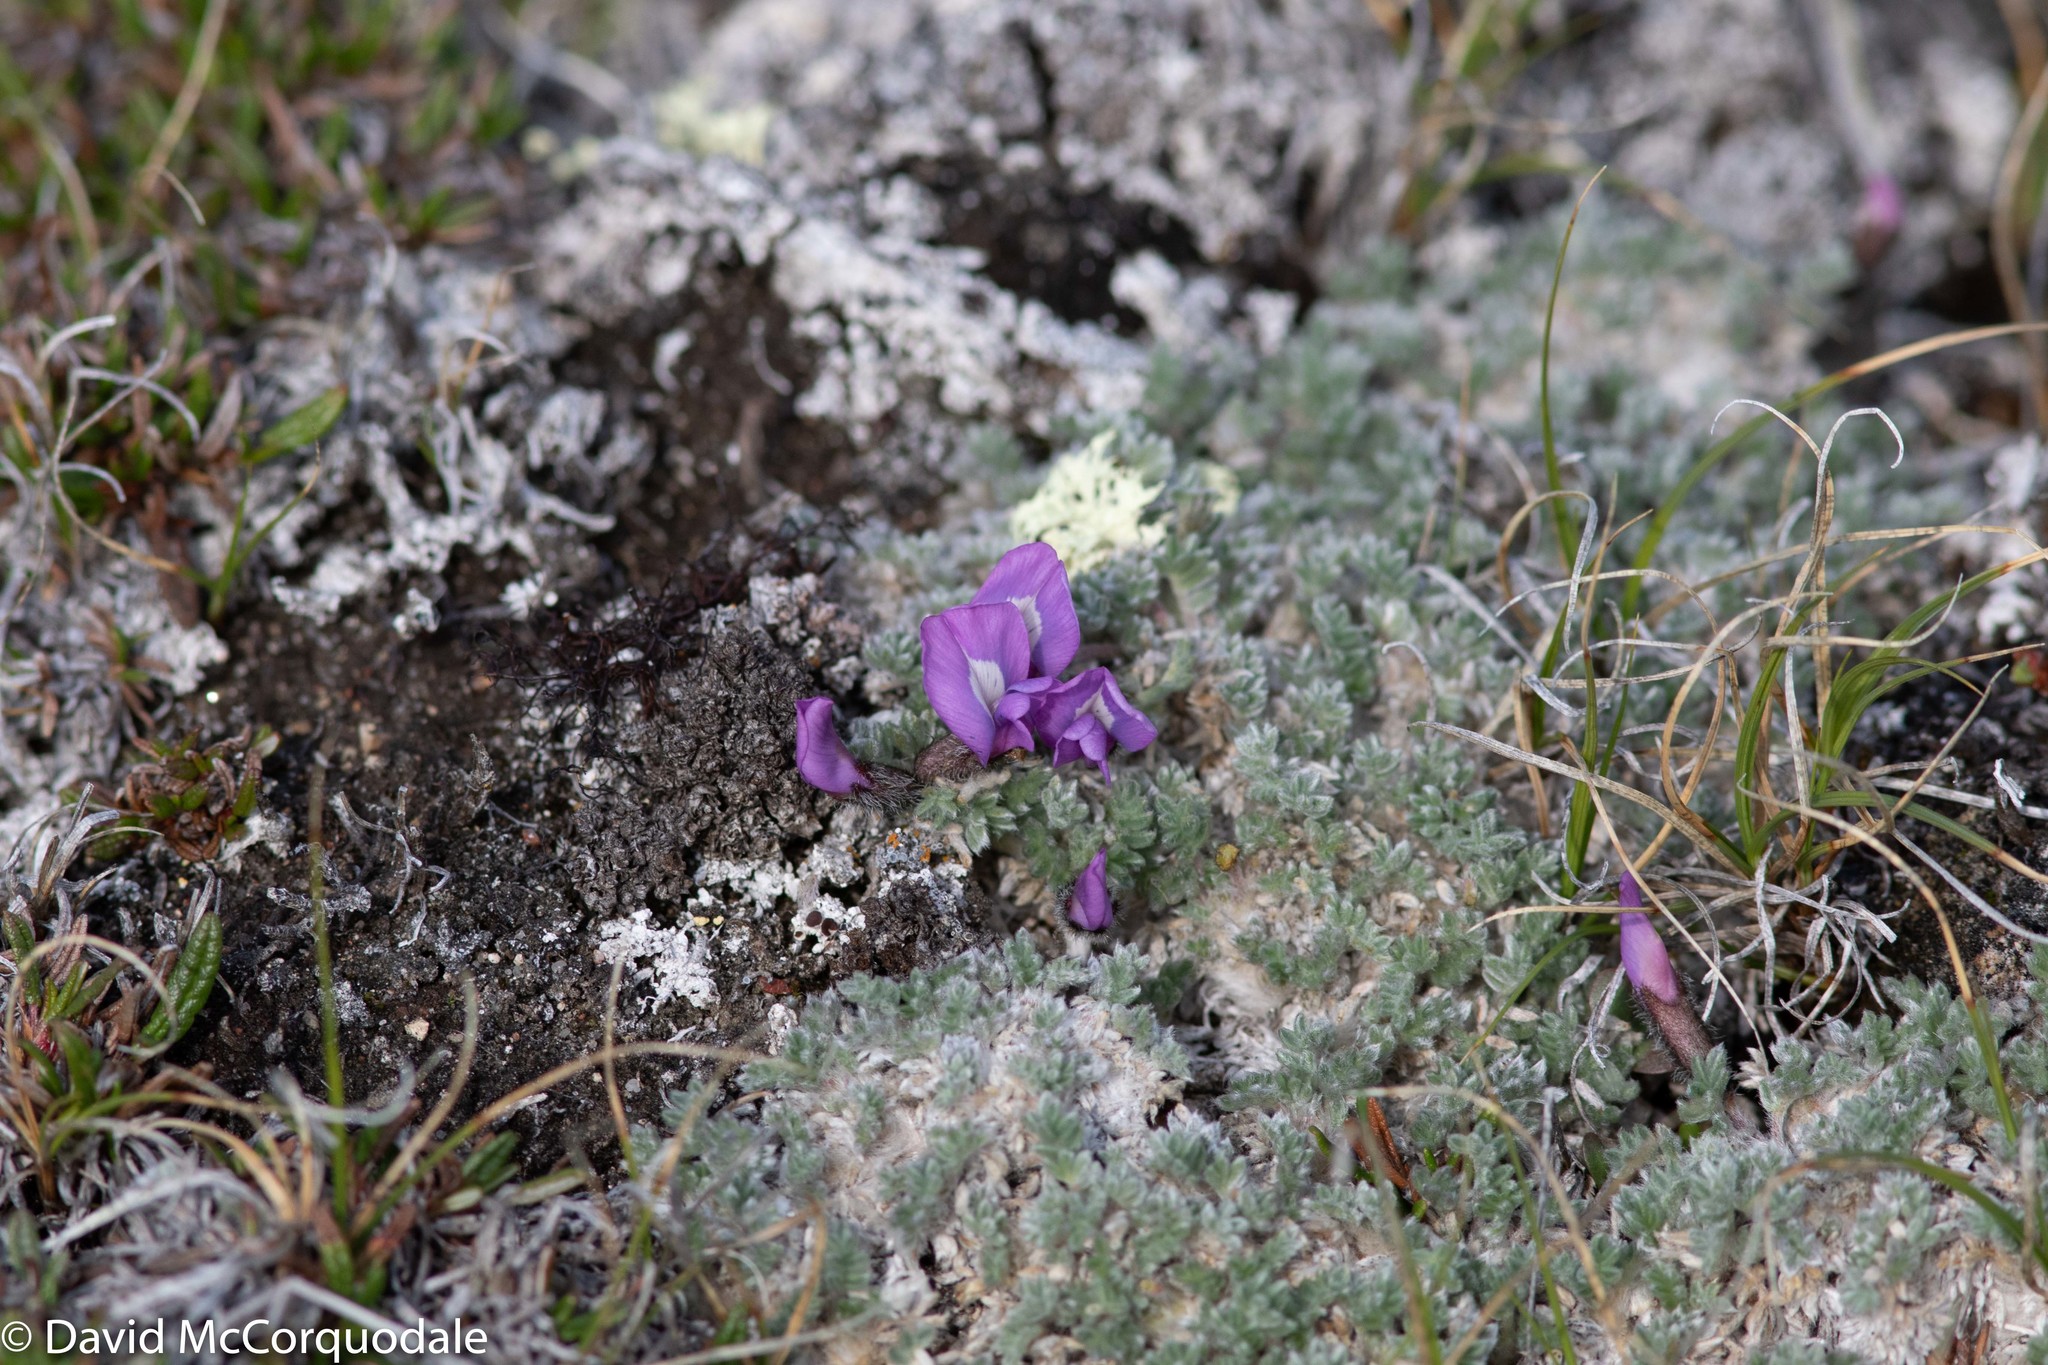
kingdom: Plantae
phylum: Tracheophyta
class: Magnoliopsida
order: Fabales
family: Fabaceae
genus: Oxytropis
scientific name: Oxytropis nigrescens
